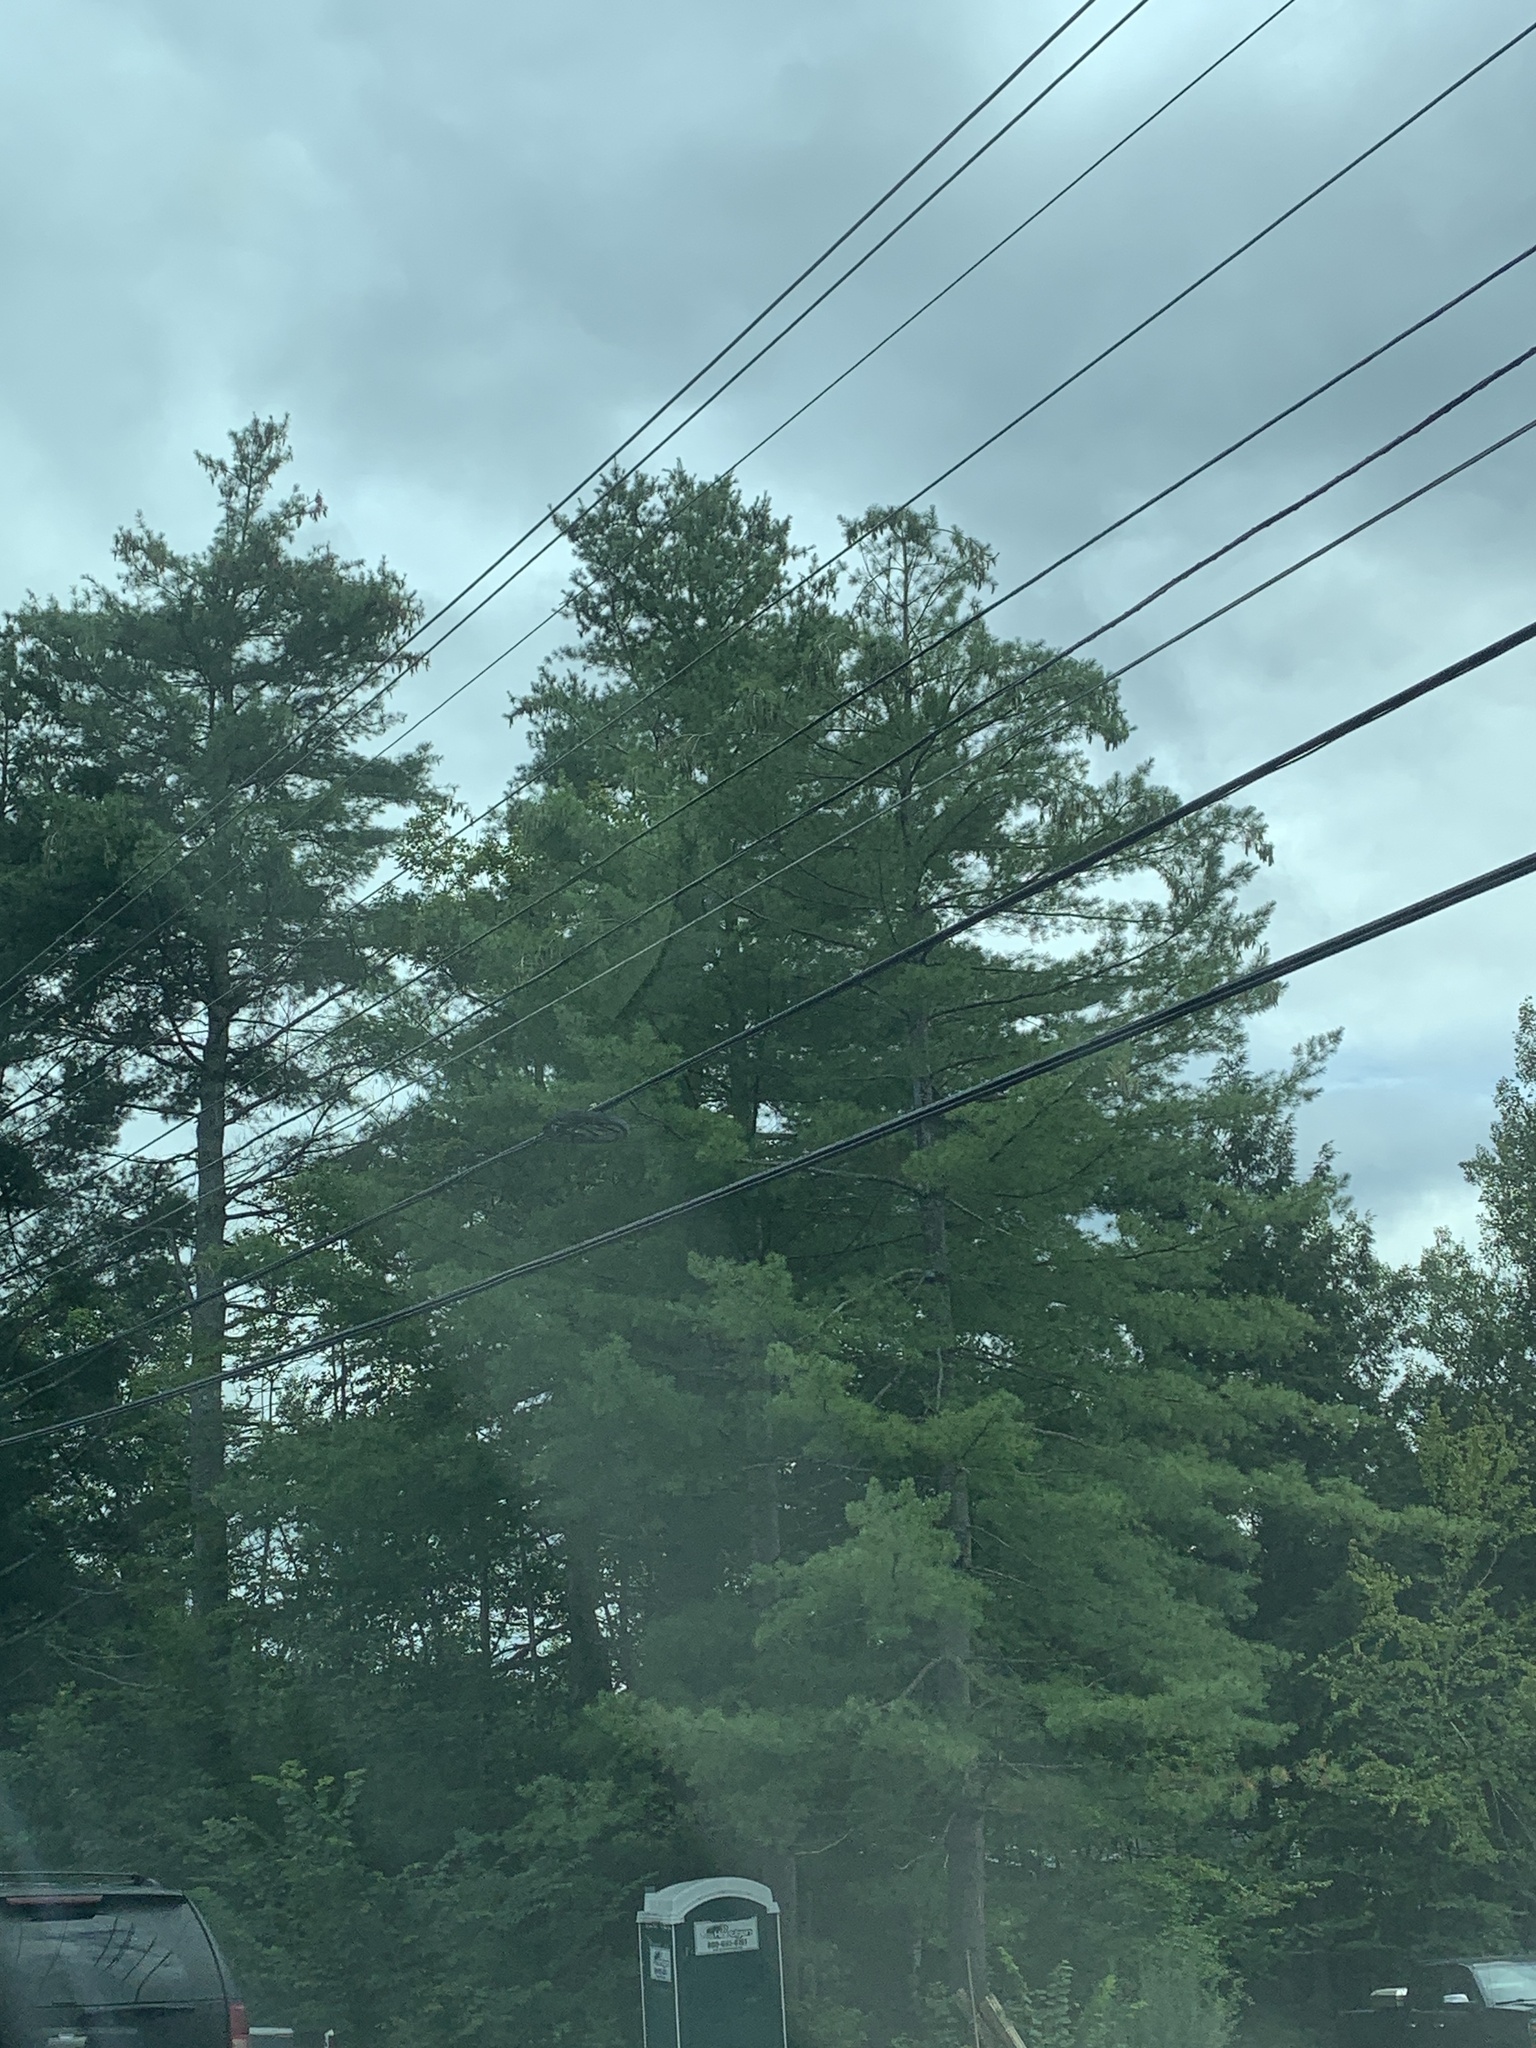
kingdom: Plantae
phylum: Tracheophyta
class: Pinopsida
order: Pinales
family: Pinaceae
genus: Pinus
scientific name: Pinus strobus
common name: Weymouth pine
